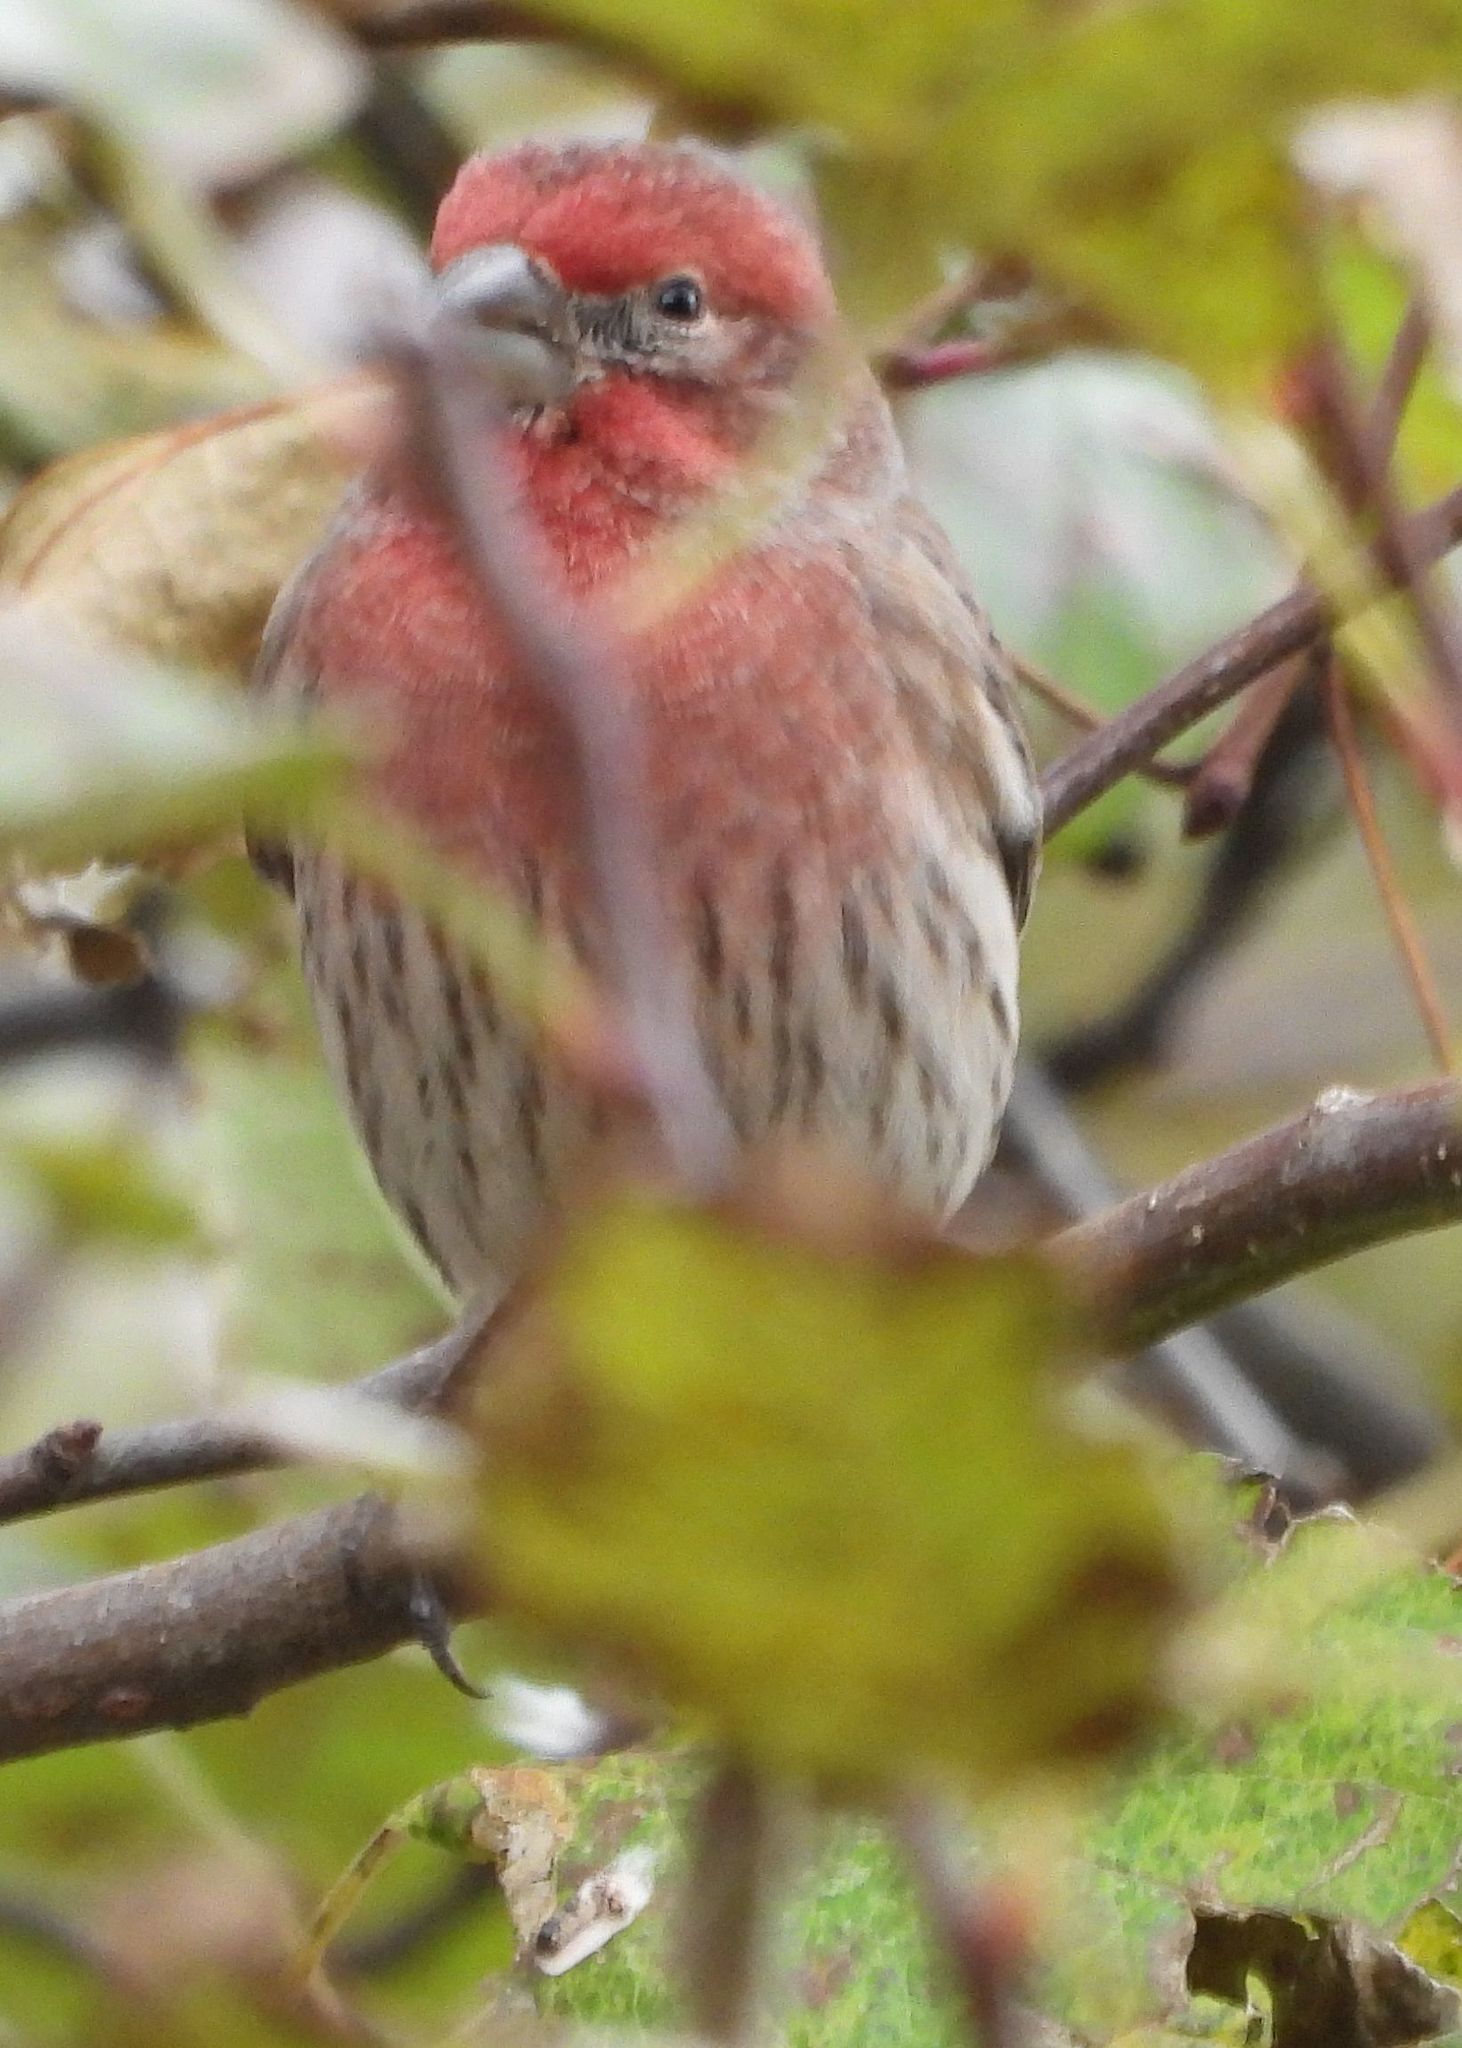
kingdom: Animalia
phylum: Chordata
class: Aves
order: Passeriformes
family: Fringillidae
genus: Haemorhous
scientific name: Haemorhous mexicanus
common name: House finch
